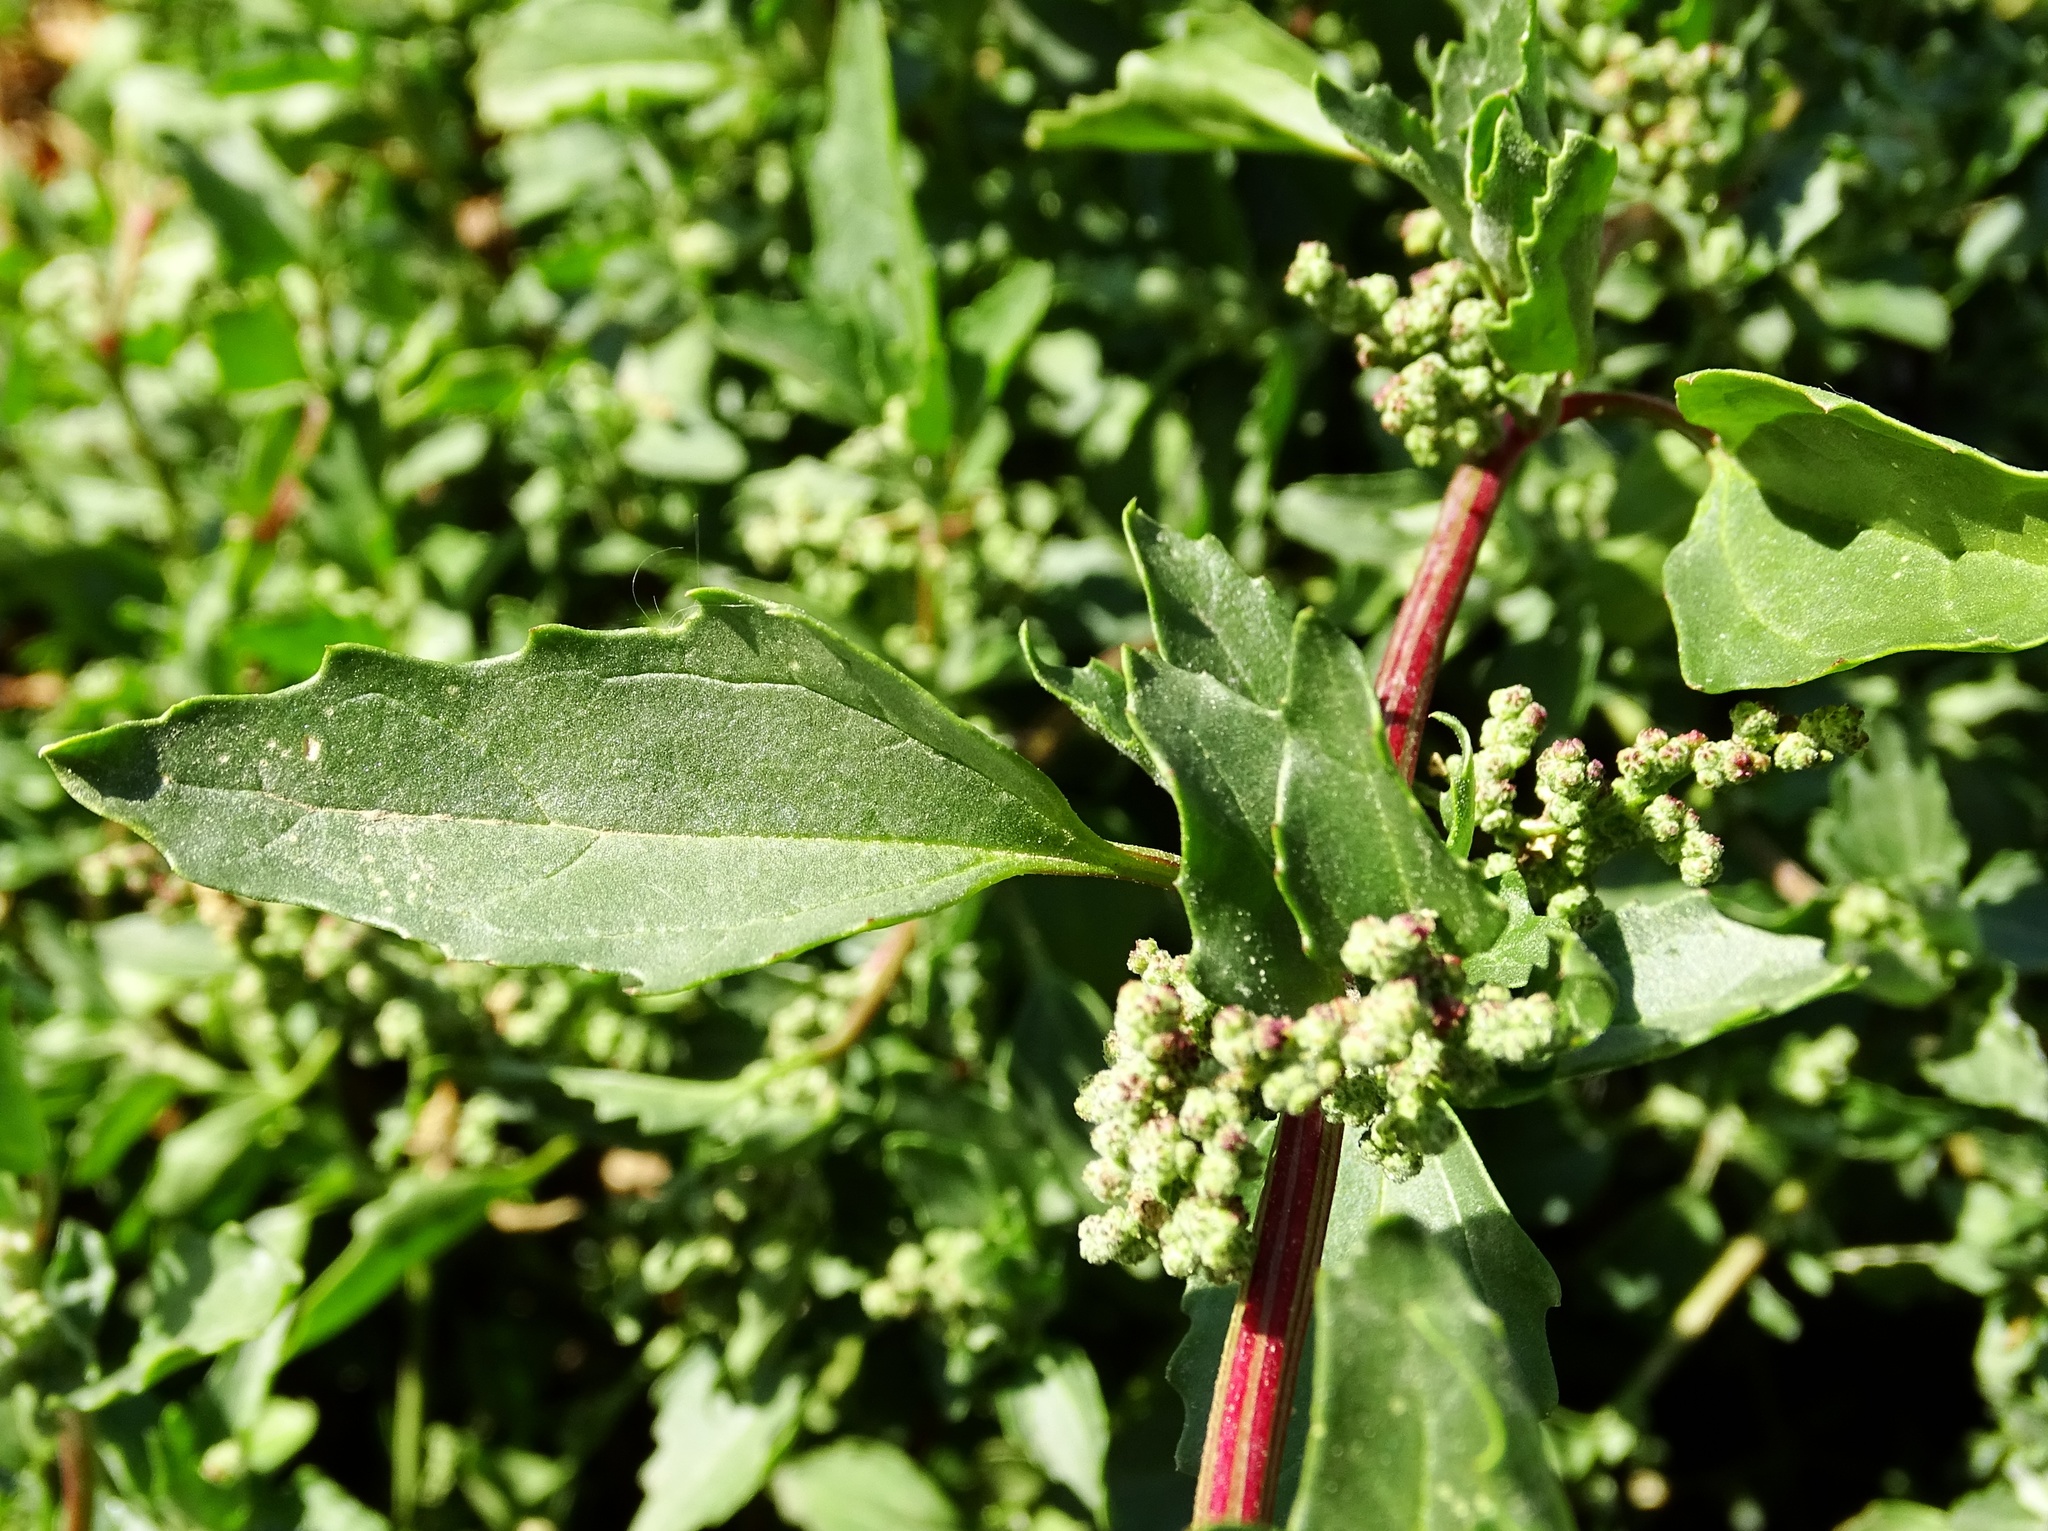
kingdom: Plantae
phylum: Tracheophyta
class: Magnoliopsida
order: Caryophyllales
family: Amaranthaceae
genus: Chenopodiastrum
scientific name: Chenopodiastrum murale
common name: Sowbane
